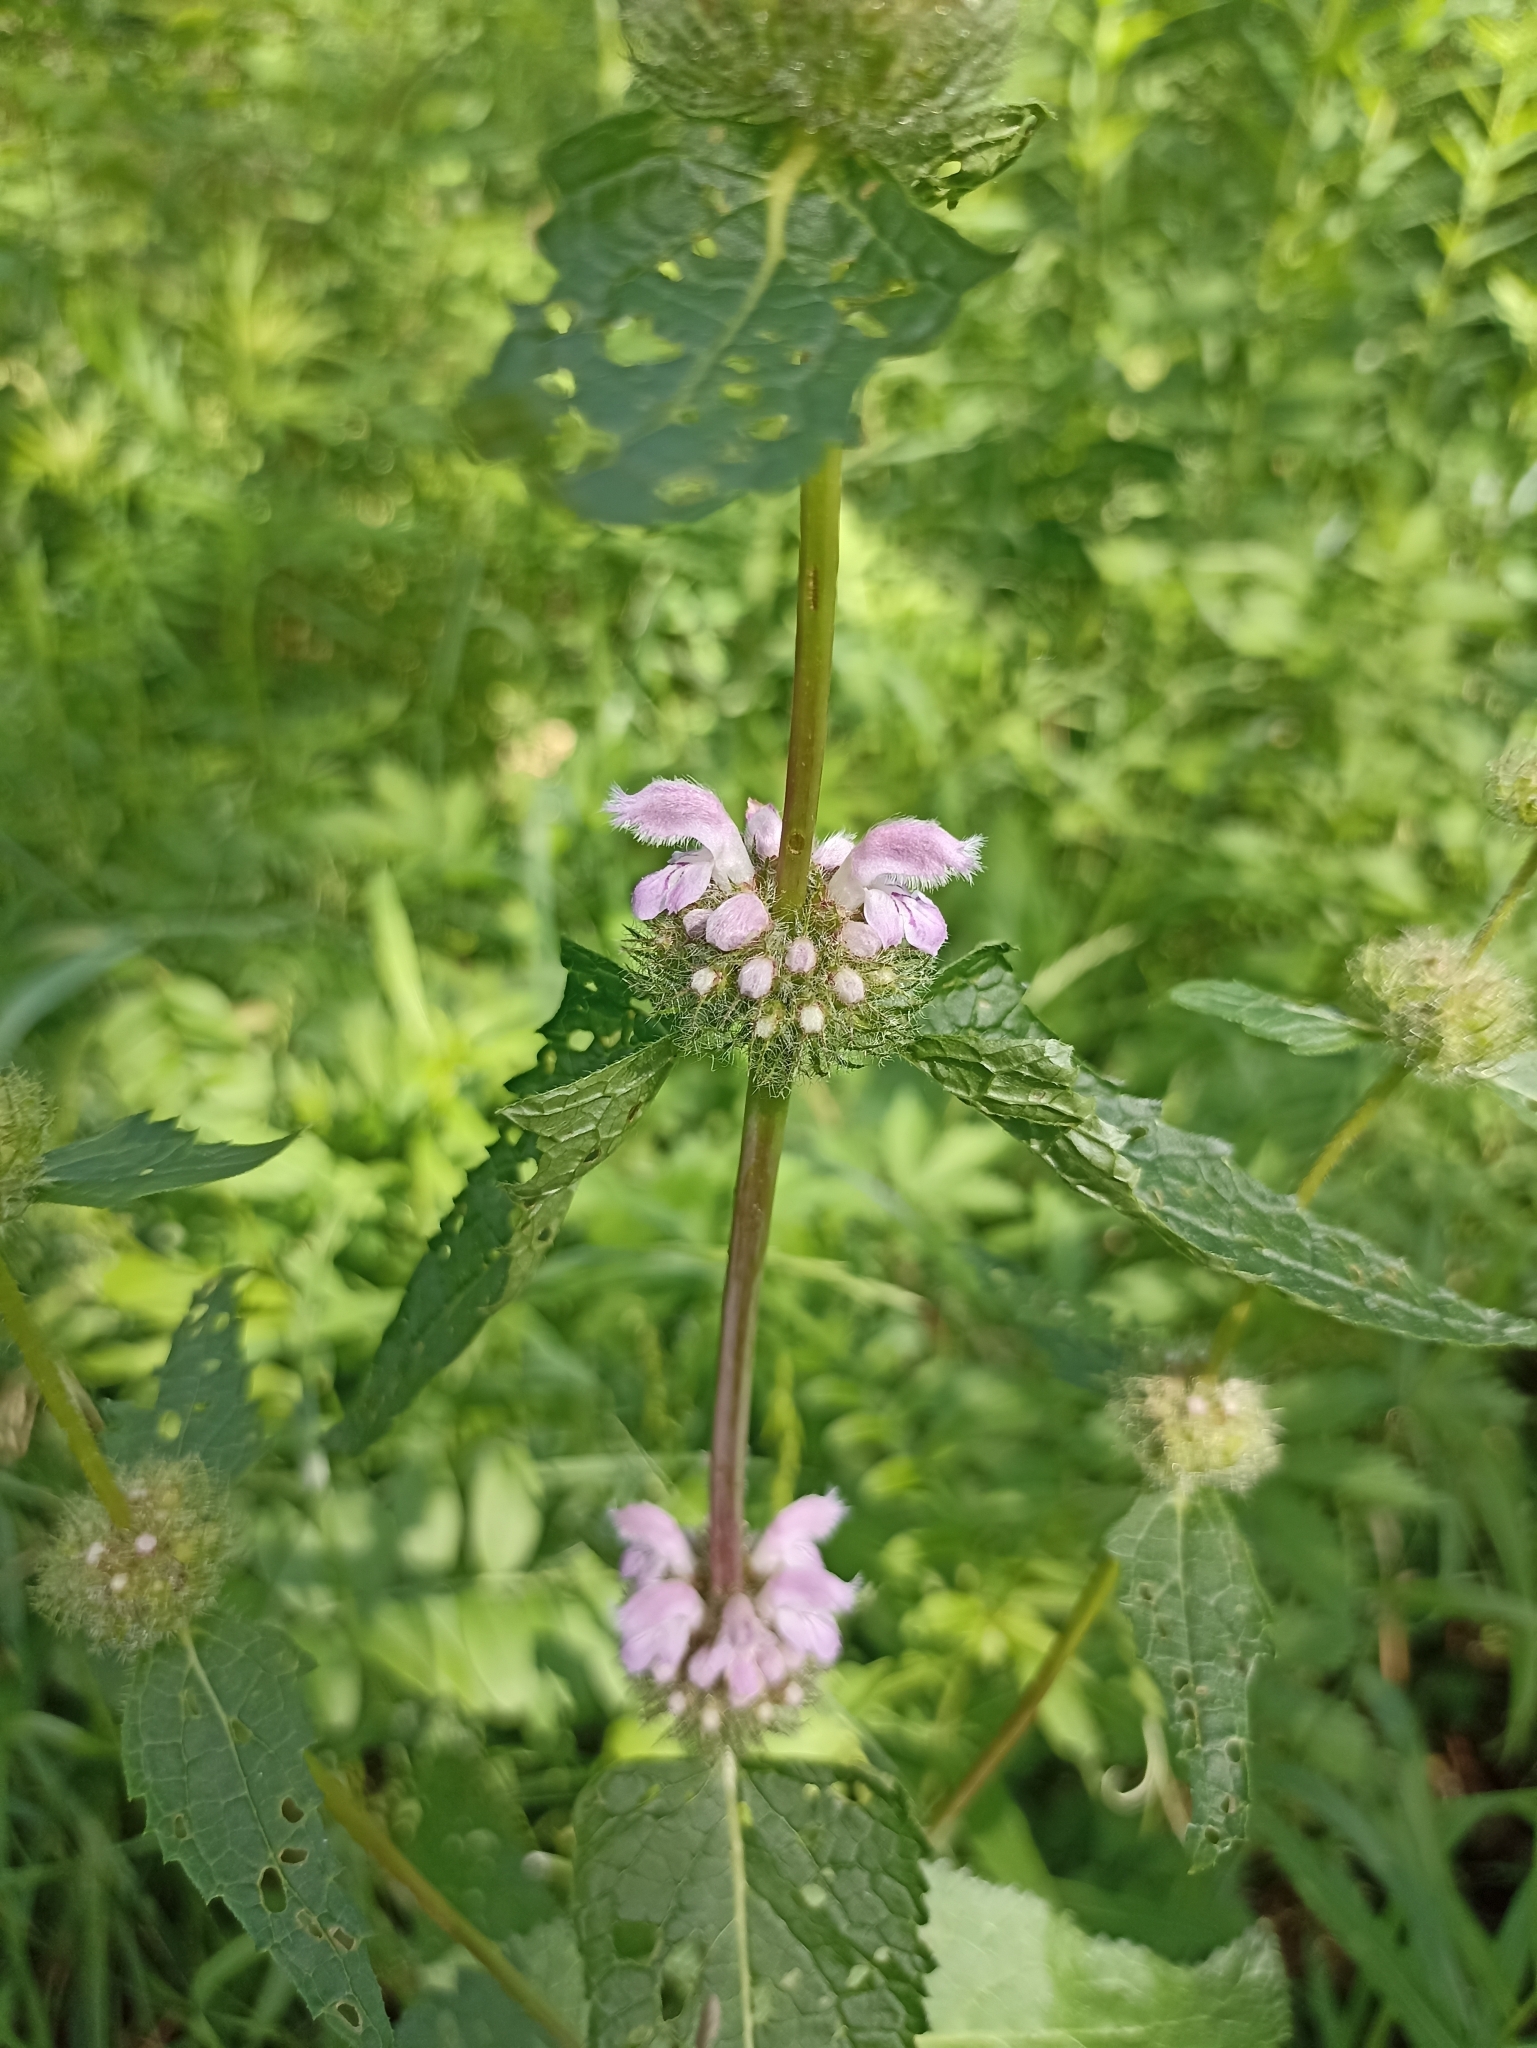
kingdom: Plantae
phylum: Tracheophyta
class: Magnoliopsida
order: Lamiales
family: Lamiaceae
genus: Phlomoides
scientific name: Phlomoides tuberosa
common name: Tuberous jerusalem sage
